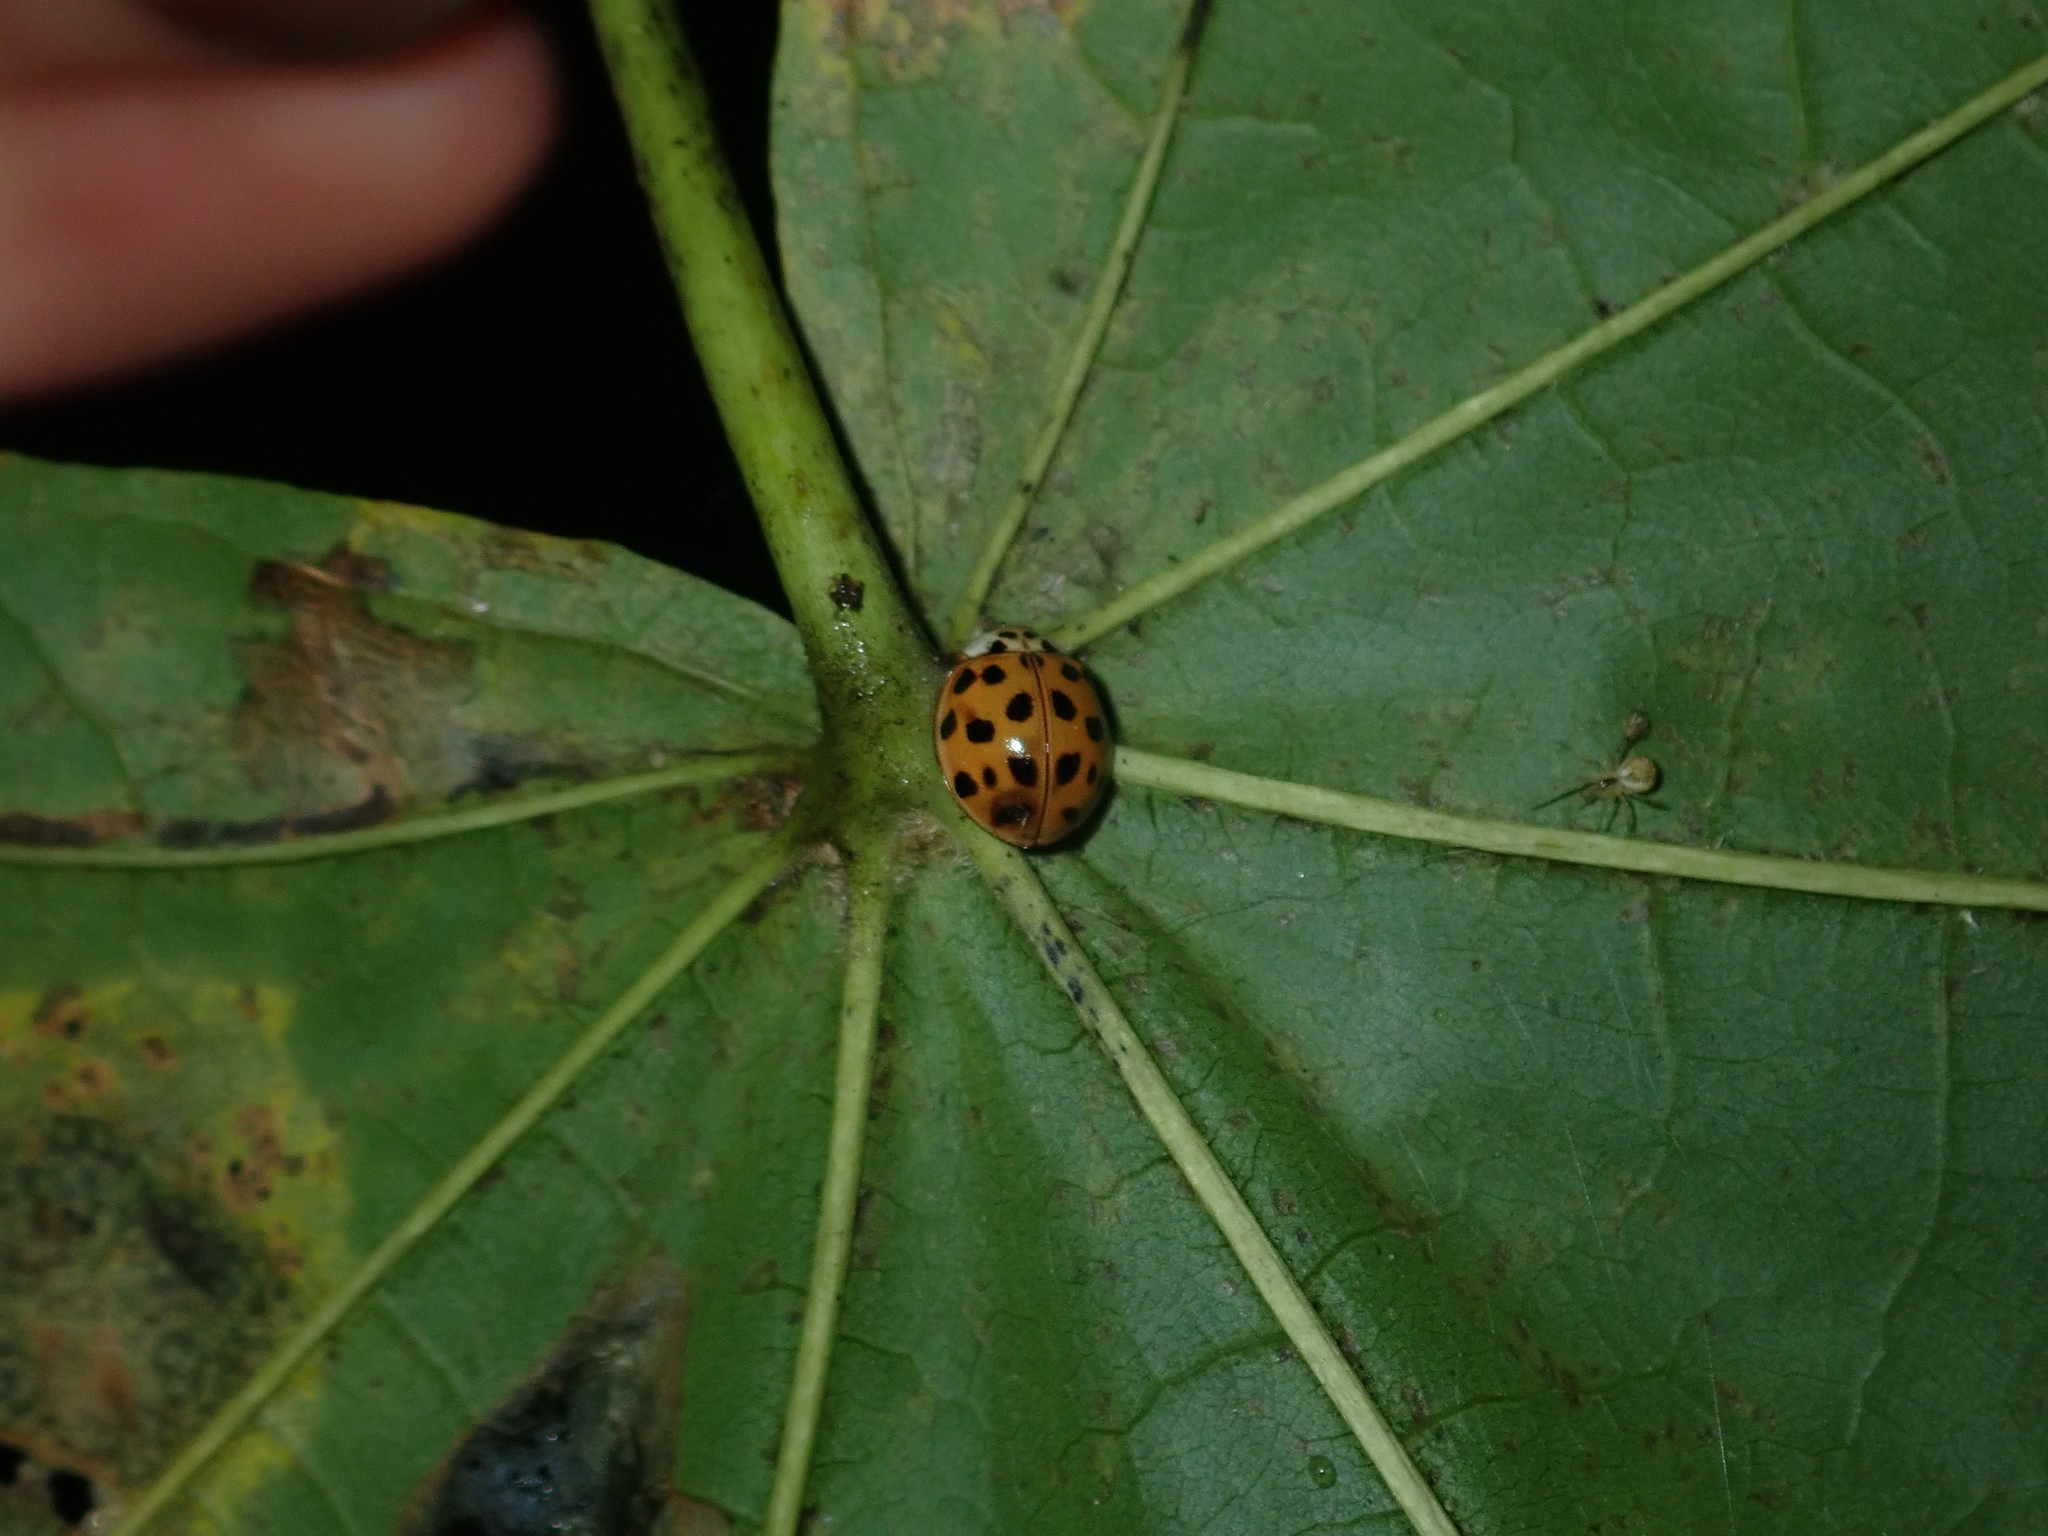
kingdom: Animalia
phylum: Arthropoda
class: Insecta
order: Coleoptera
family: Coccinellidae
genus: Harmonia
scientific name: Harmonia axyridis
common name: Harlequin ladybird
